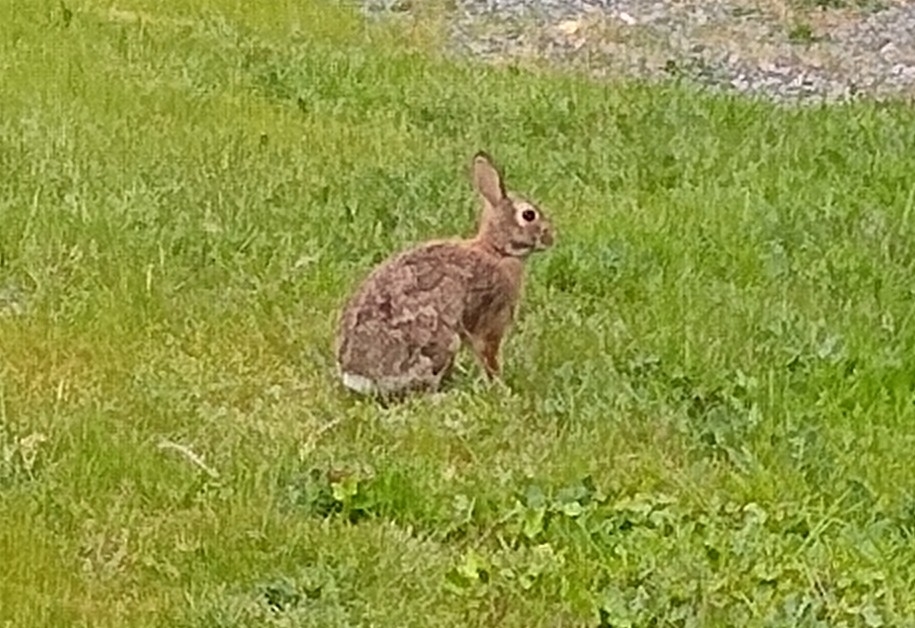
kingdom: Animalia
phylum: Chordata
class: Mammalia
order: Lagomorpha
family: Leporidae
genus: Sylvilagus
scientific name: Sylvilagus floridanus
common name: Eastern cottontail
